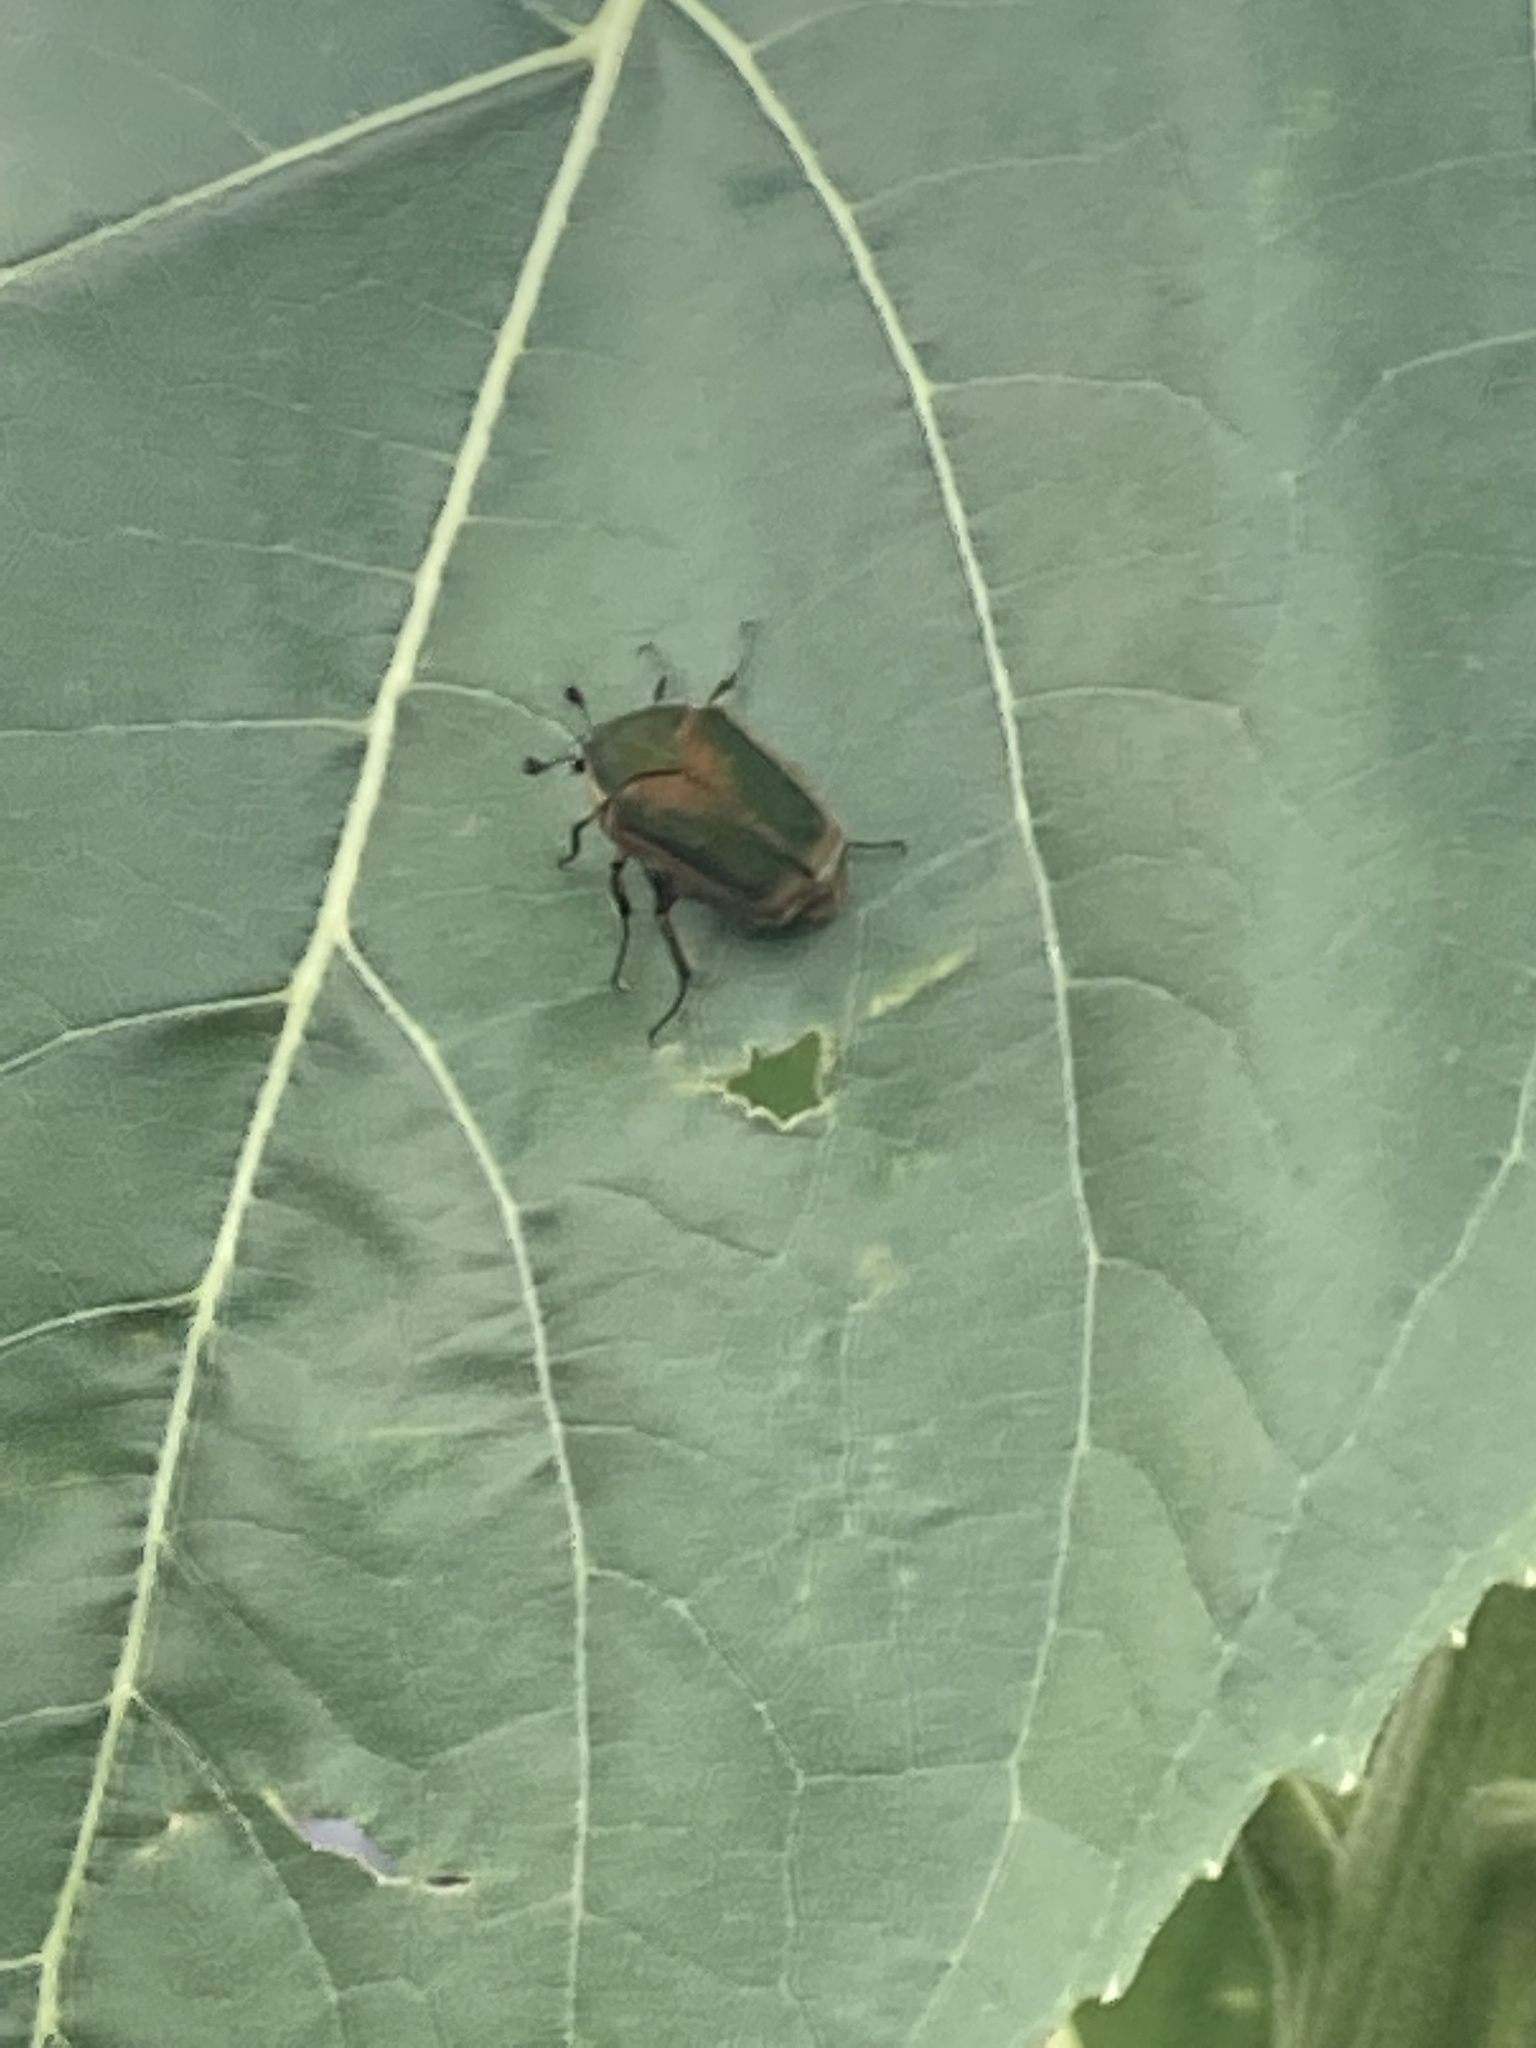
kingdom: Animalia
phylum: Arthropoda
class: Insecta
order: Coleoptera
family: Scarabaeidae
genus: Cotinis
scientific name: Cotinis nitida
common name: Common green june beetle
